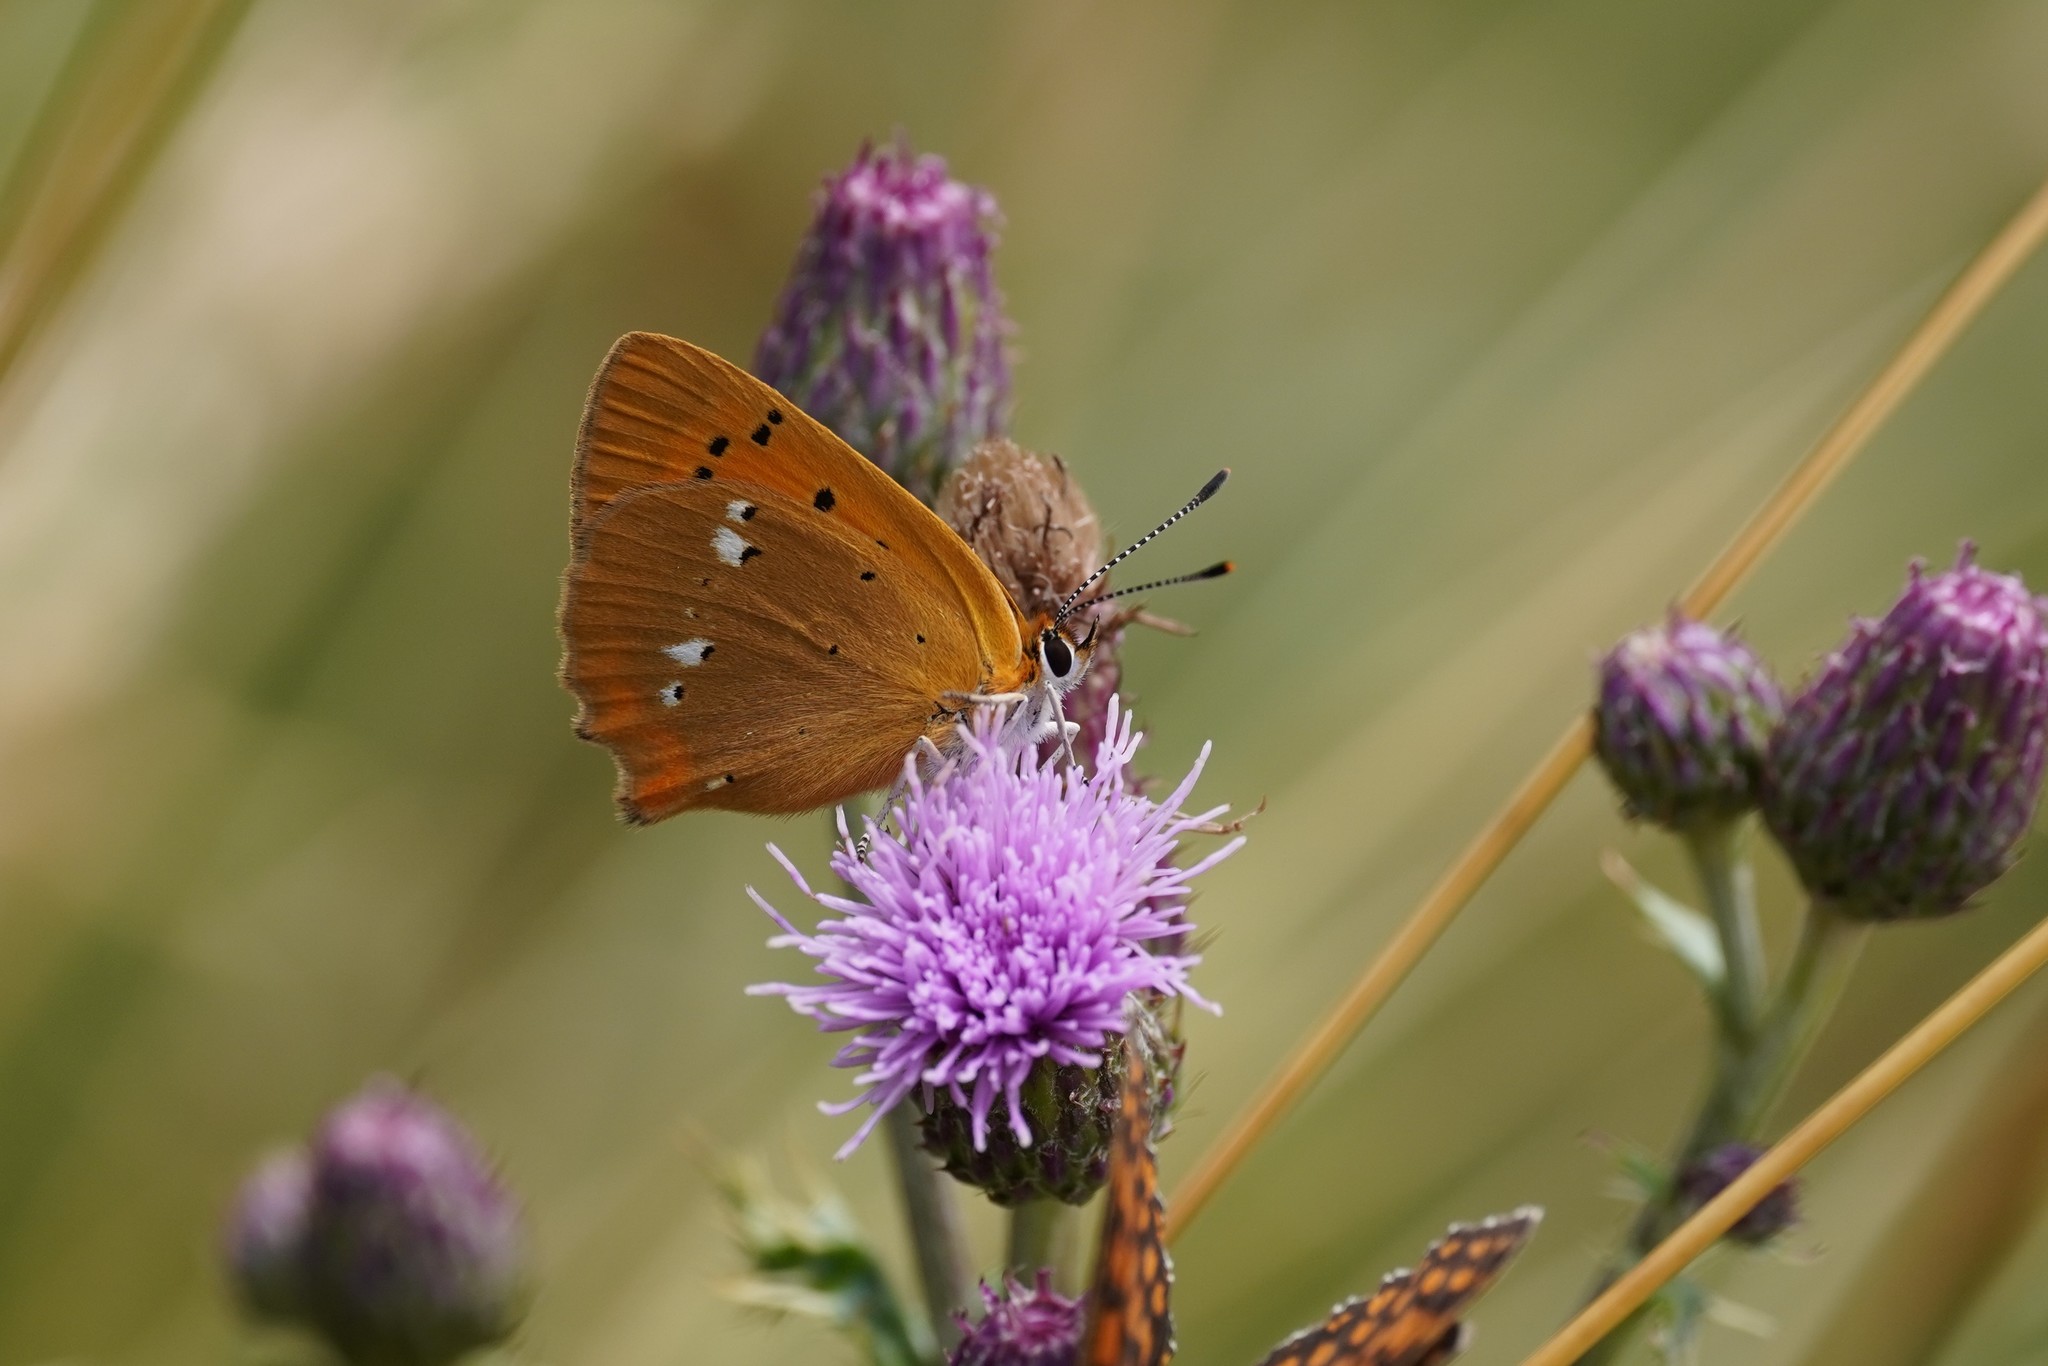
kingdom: Animalia
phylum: Arthropoda
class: Insecta
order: Lepidoptera
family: Lycaenidae
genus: Lycaena
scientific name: Lycaena virgaureae
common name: Scarce copper
